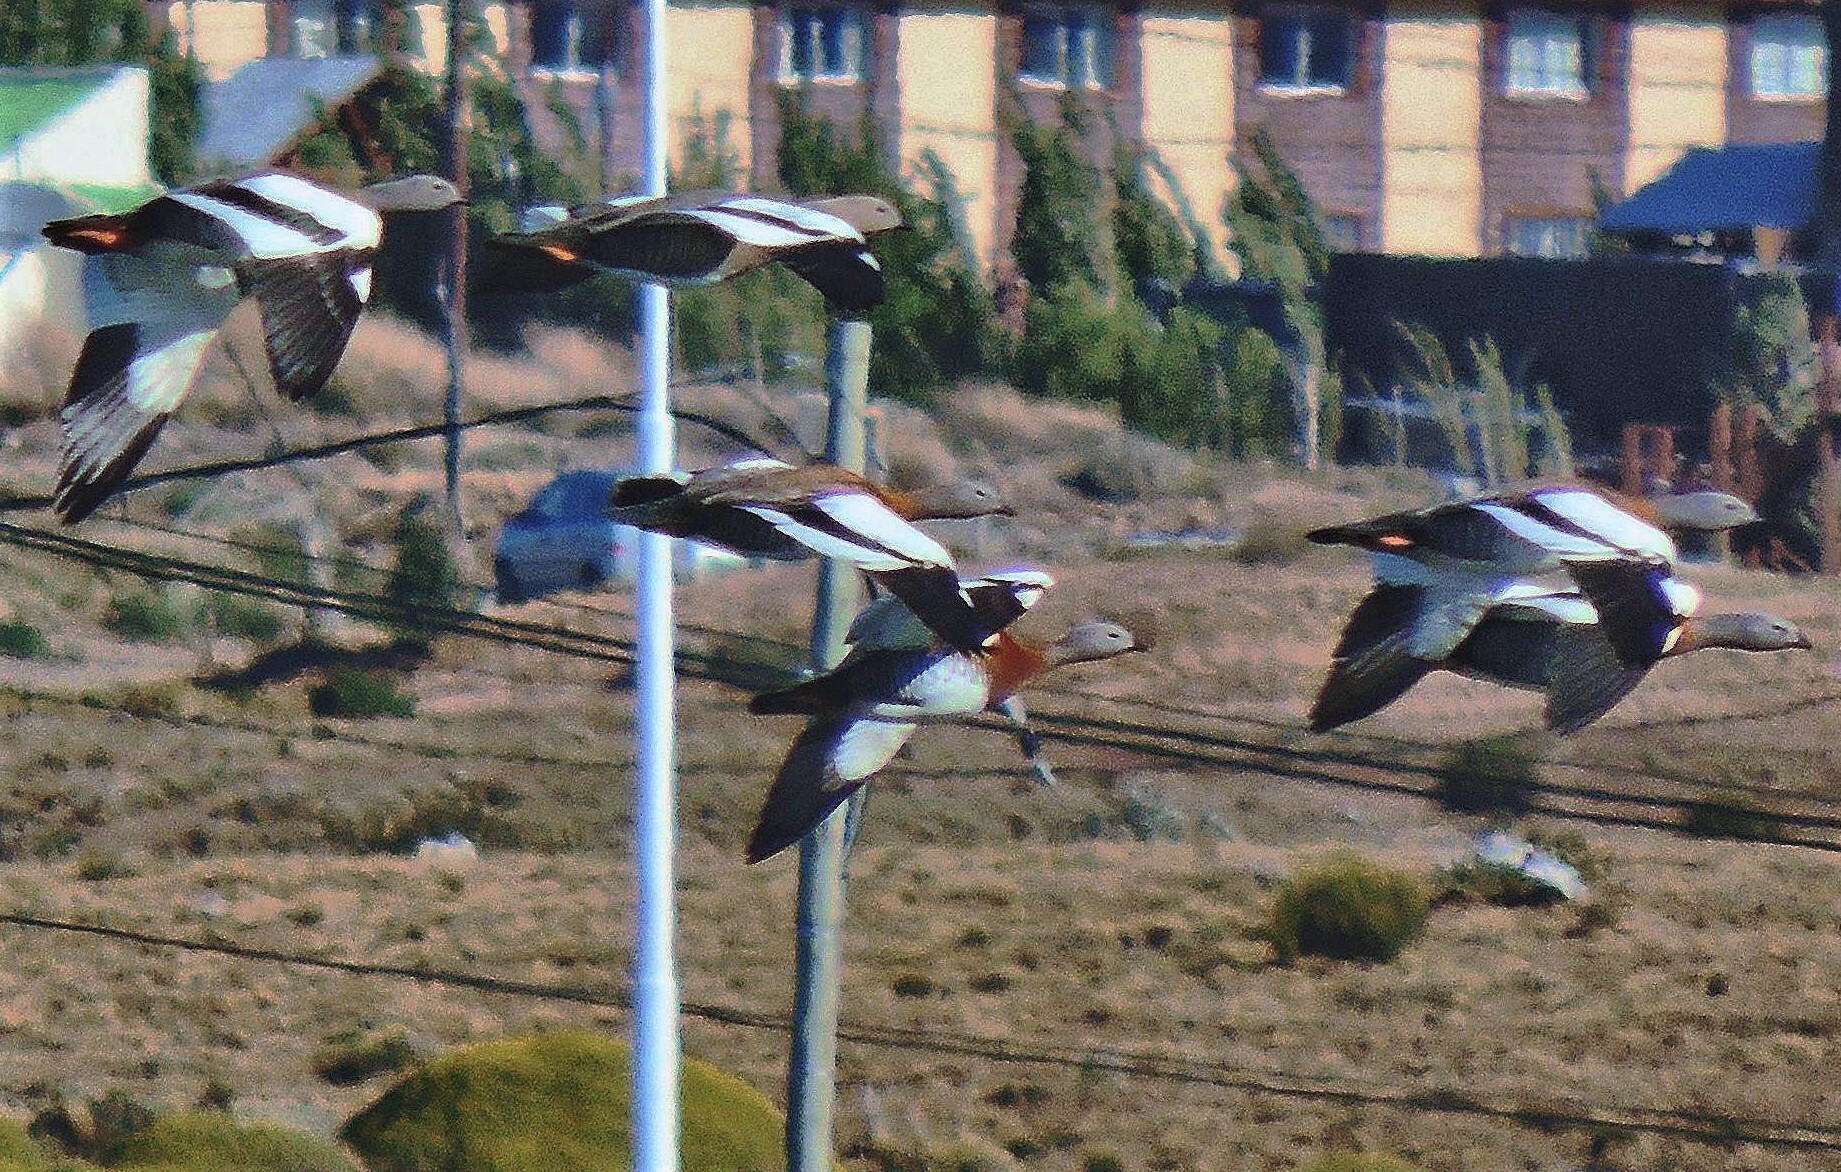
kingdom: Animalia
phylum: Chordata
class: Aves
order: Anseriformes
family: Anatidae
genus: Chloephaga
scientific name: Chloephaga poliocephala
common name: Ashy-headed goose
